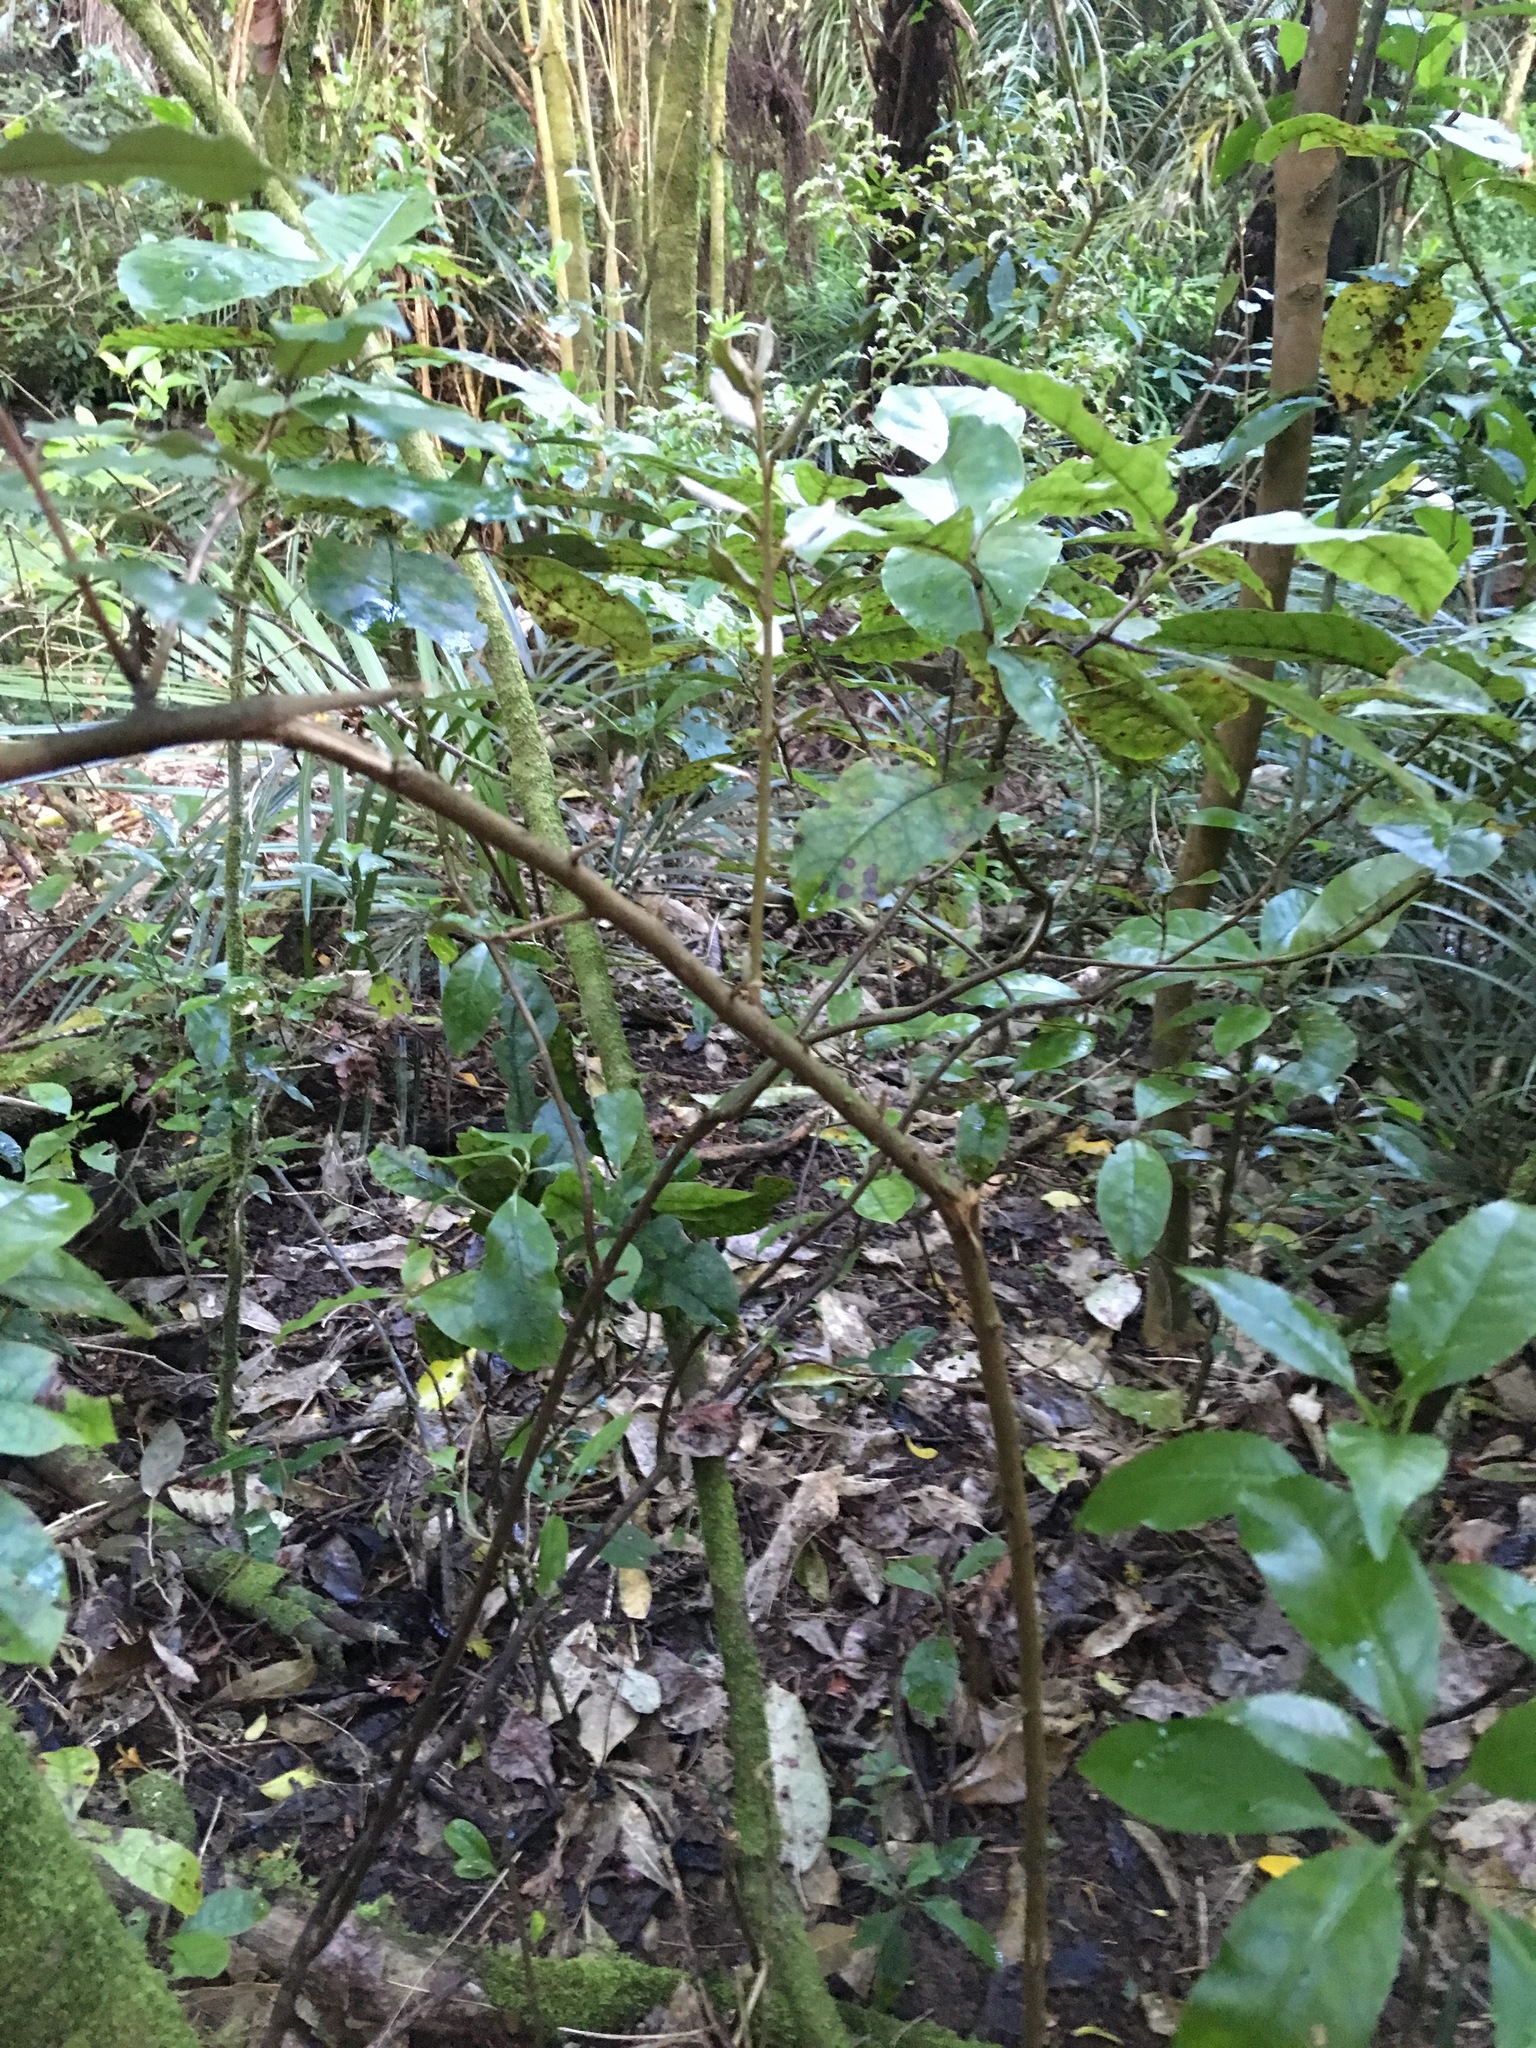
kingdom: Plantae
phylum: Tracheophyta
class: Magnoliopsida
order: Gentianales
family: Rubiaceae
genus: Coprosma
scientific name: Coprosma autumnalis
